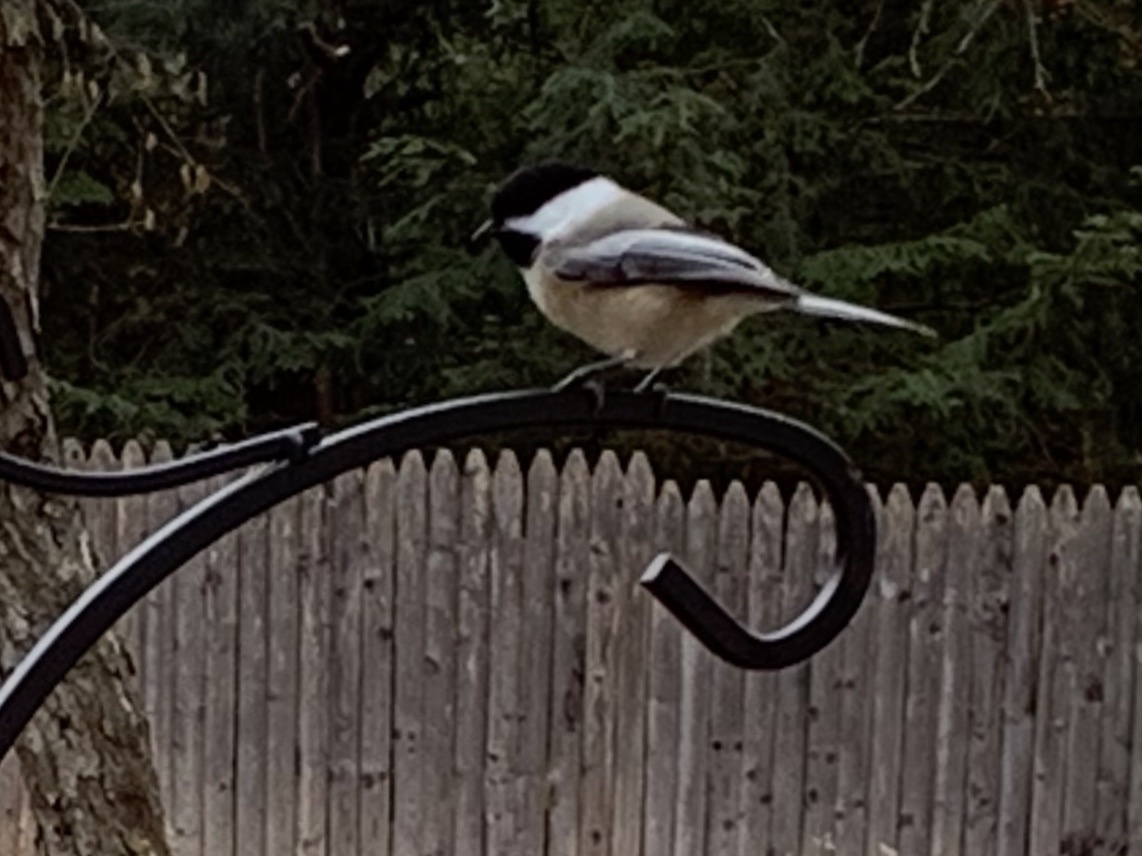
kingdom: Animalia
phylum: Chordata
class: Aves
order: Passeriformes
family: Paridae
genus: Poecile
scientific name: Poecile atricapillus
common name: Black-capped chickadee
